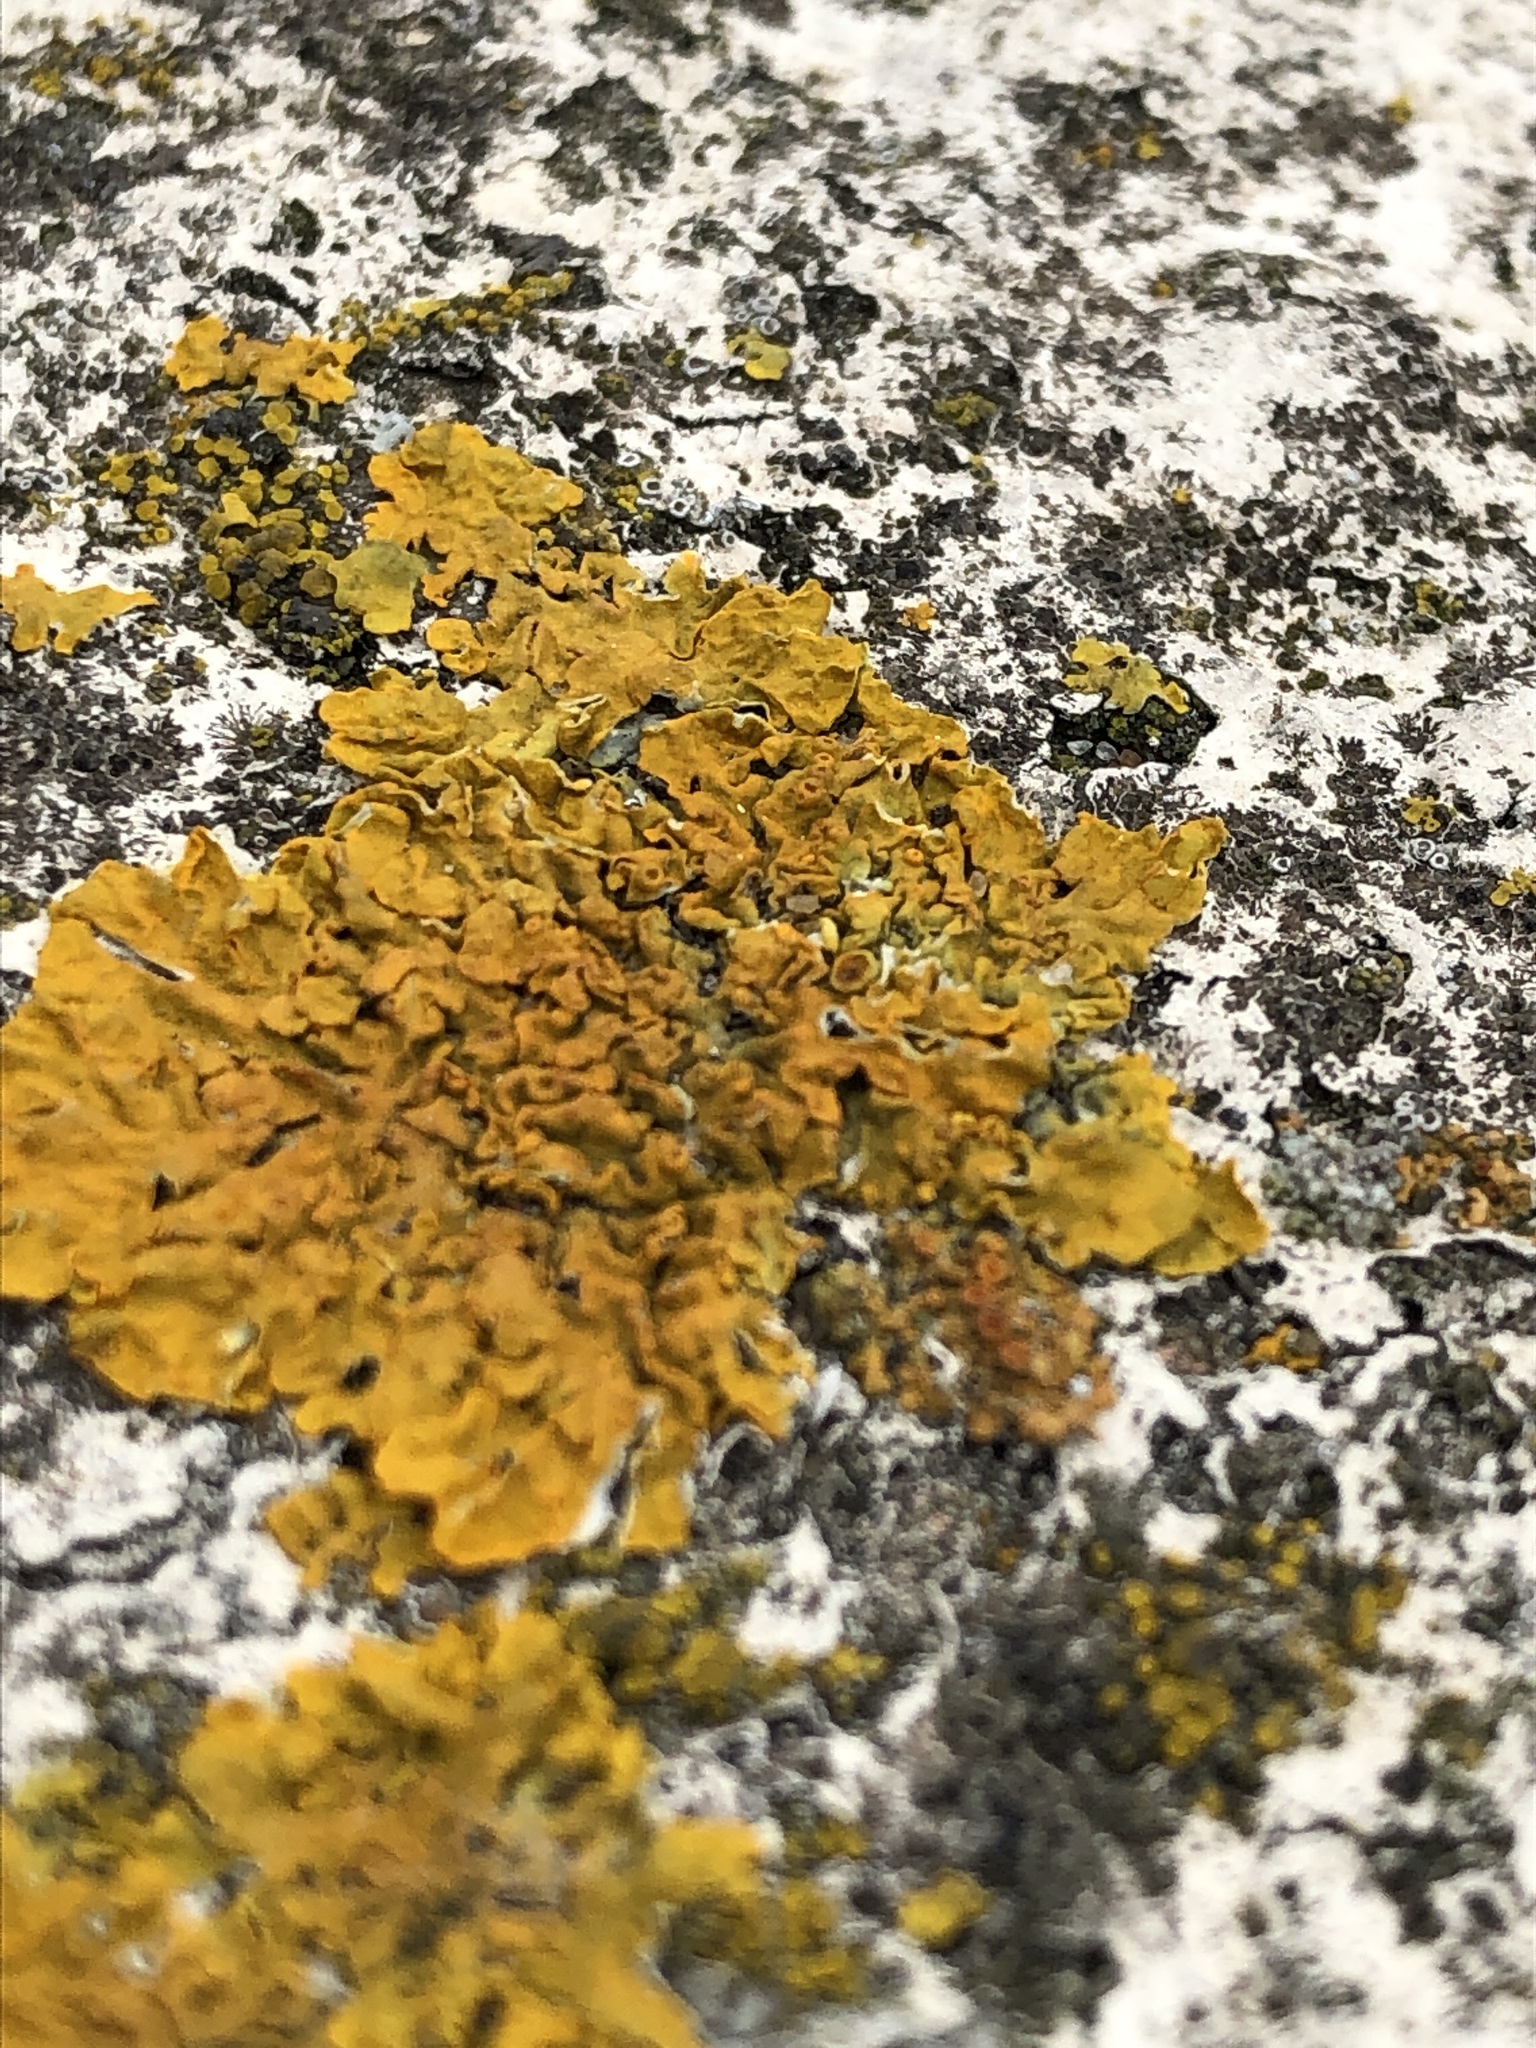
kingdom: Fungi
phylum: Ascomycota
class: Lecanoromycetes
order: Teloschistales
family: Teloschistaceae
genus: Xanthoria
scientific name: Xanthoria parietina
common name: Common orange lichen
